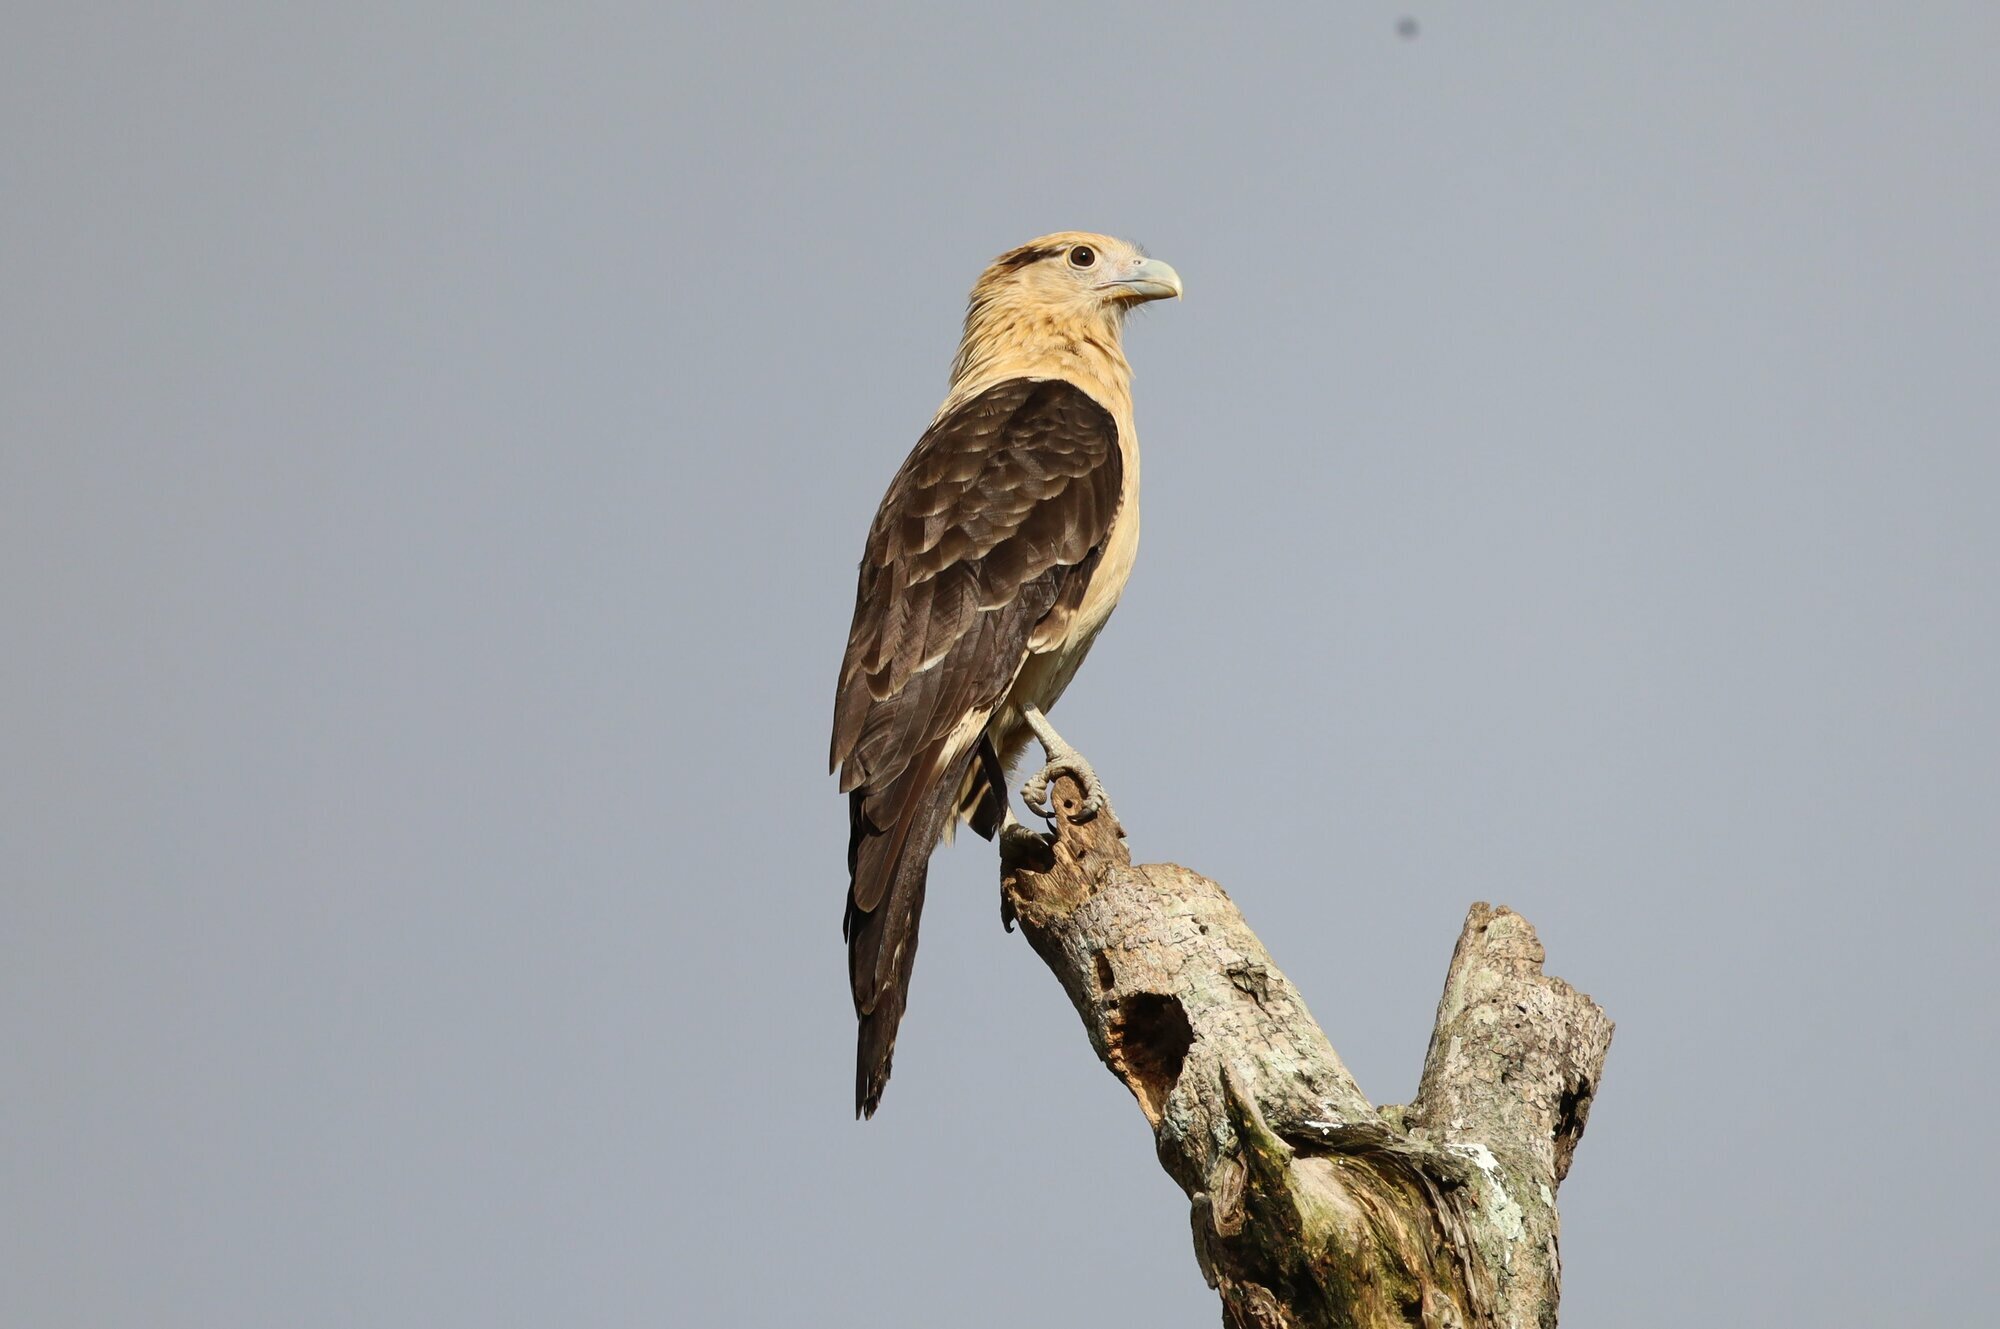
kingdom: Animalia
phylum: Chordata
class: Aves
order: Falconiformes
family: Falconidae
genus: Daptrius
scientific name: Daptrius
